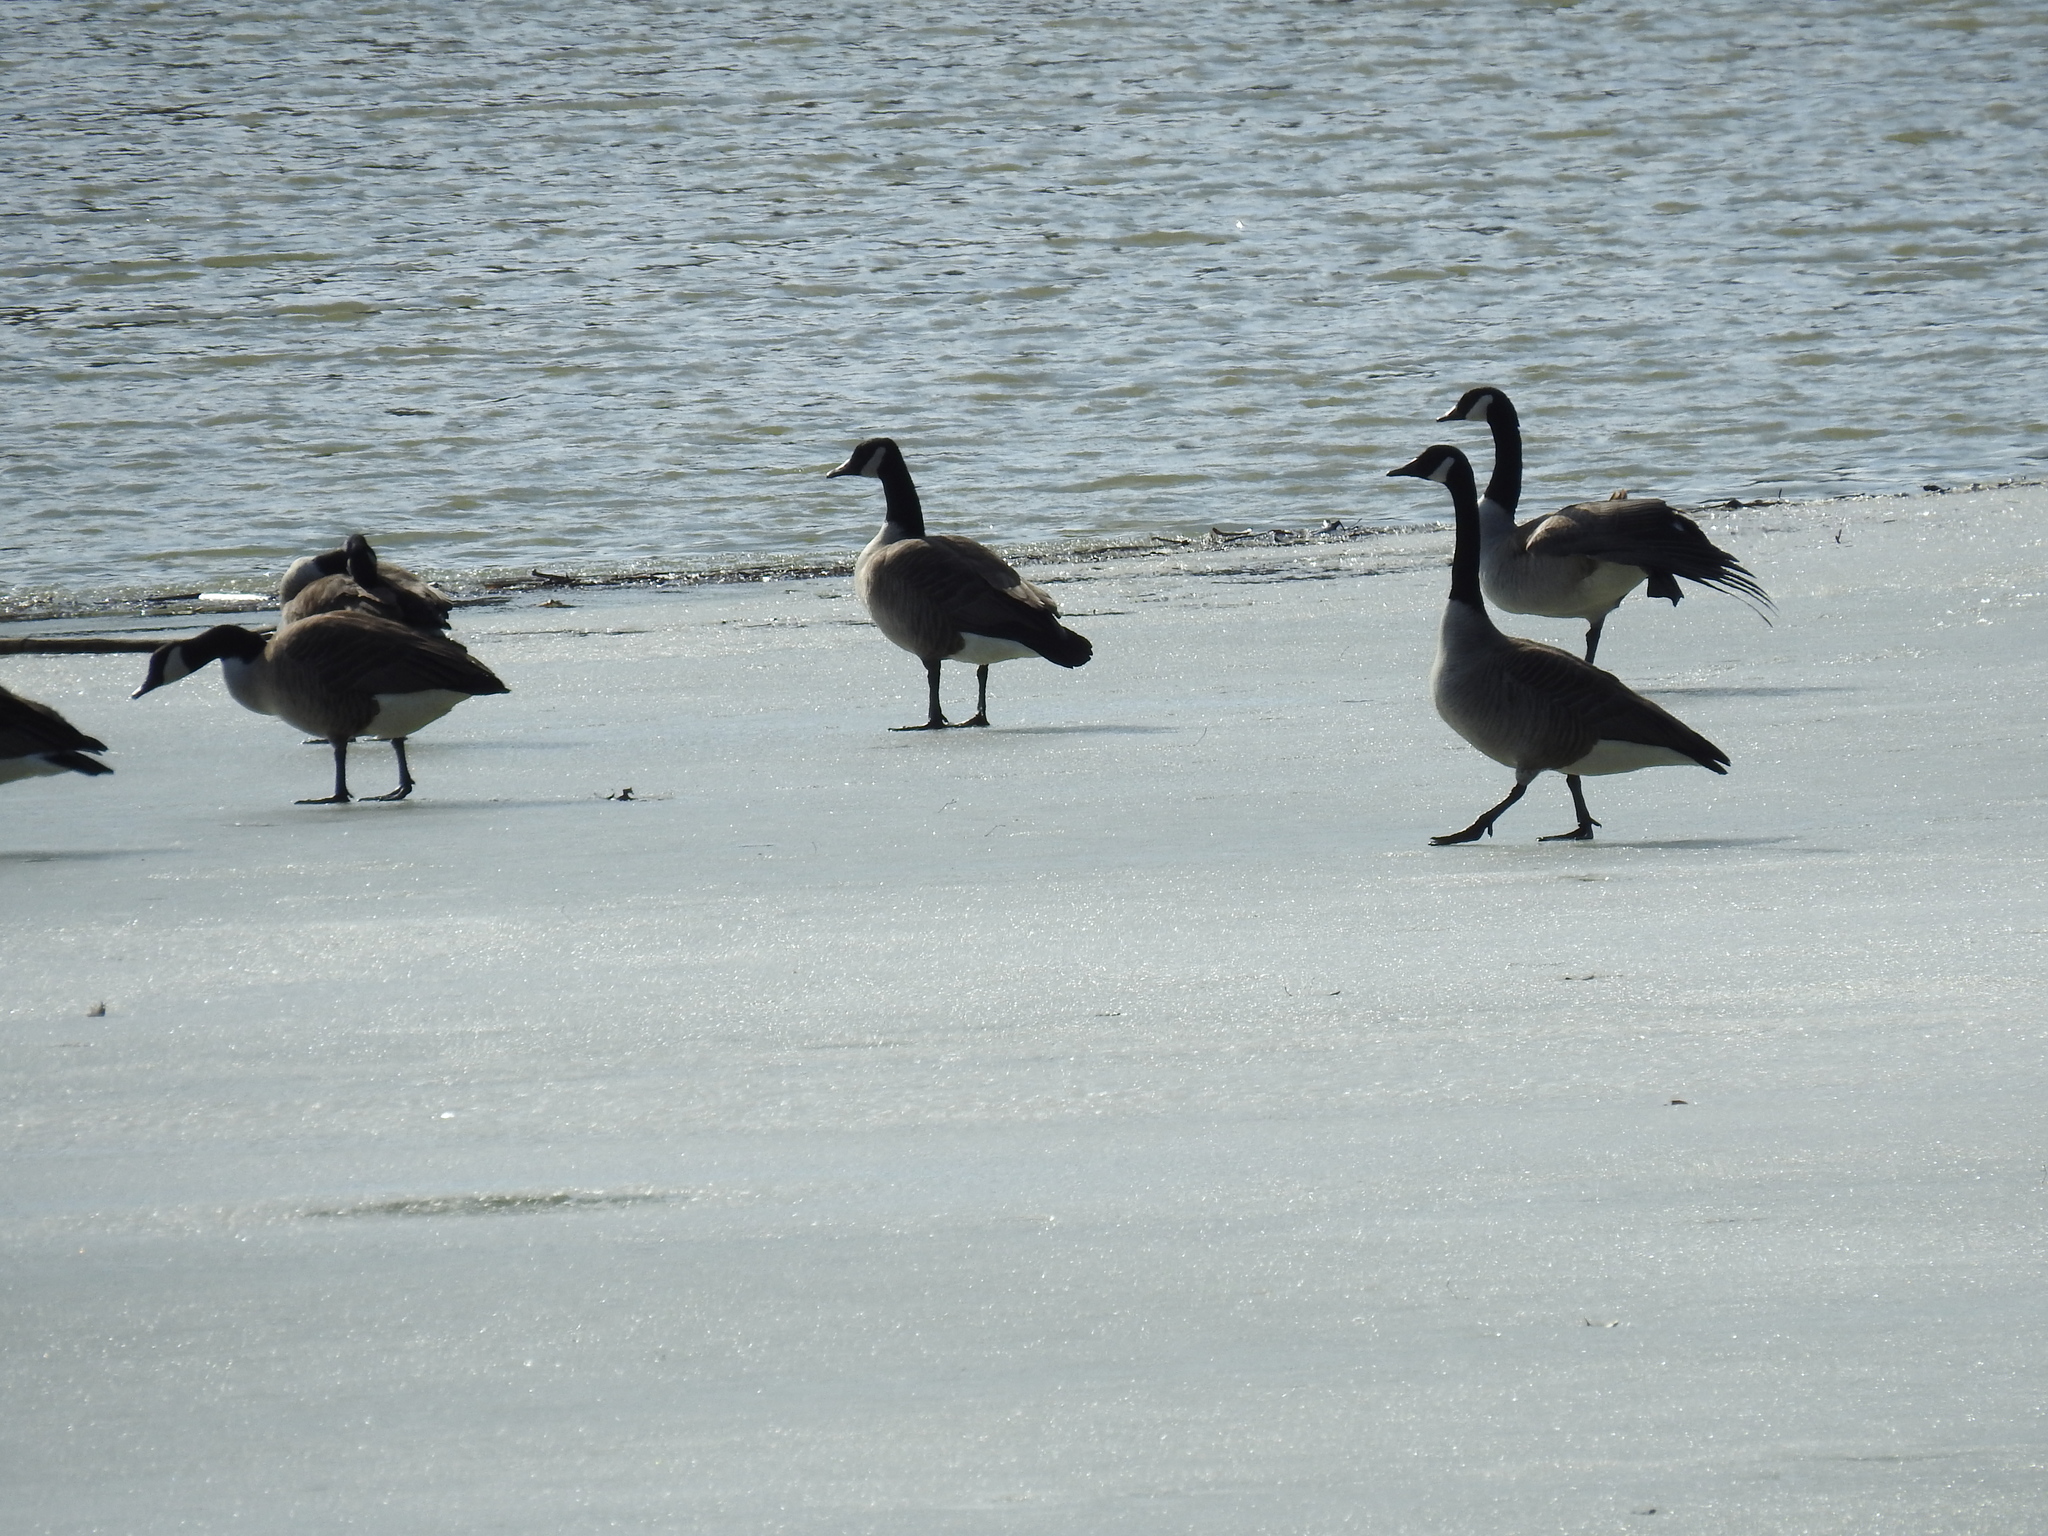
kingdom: Animalia
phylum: Chordata
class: Aves
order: Anseriformes
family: Anatidae
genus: Branta
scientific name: Branta canadensis
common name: Canada goose
